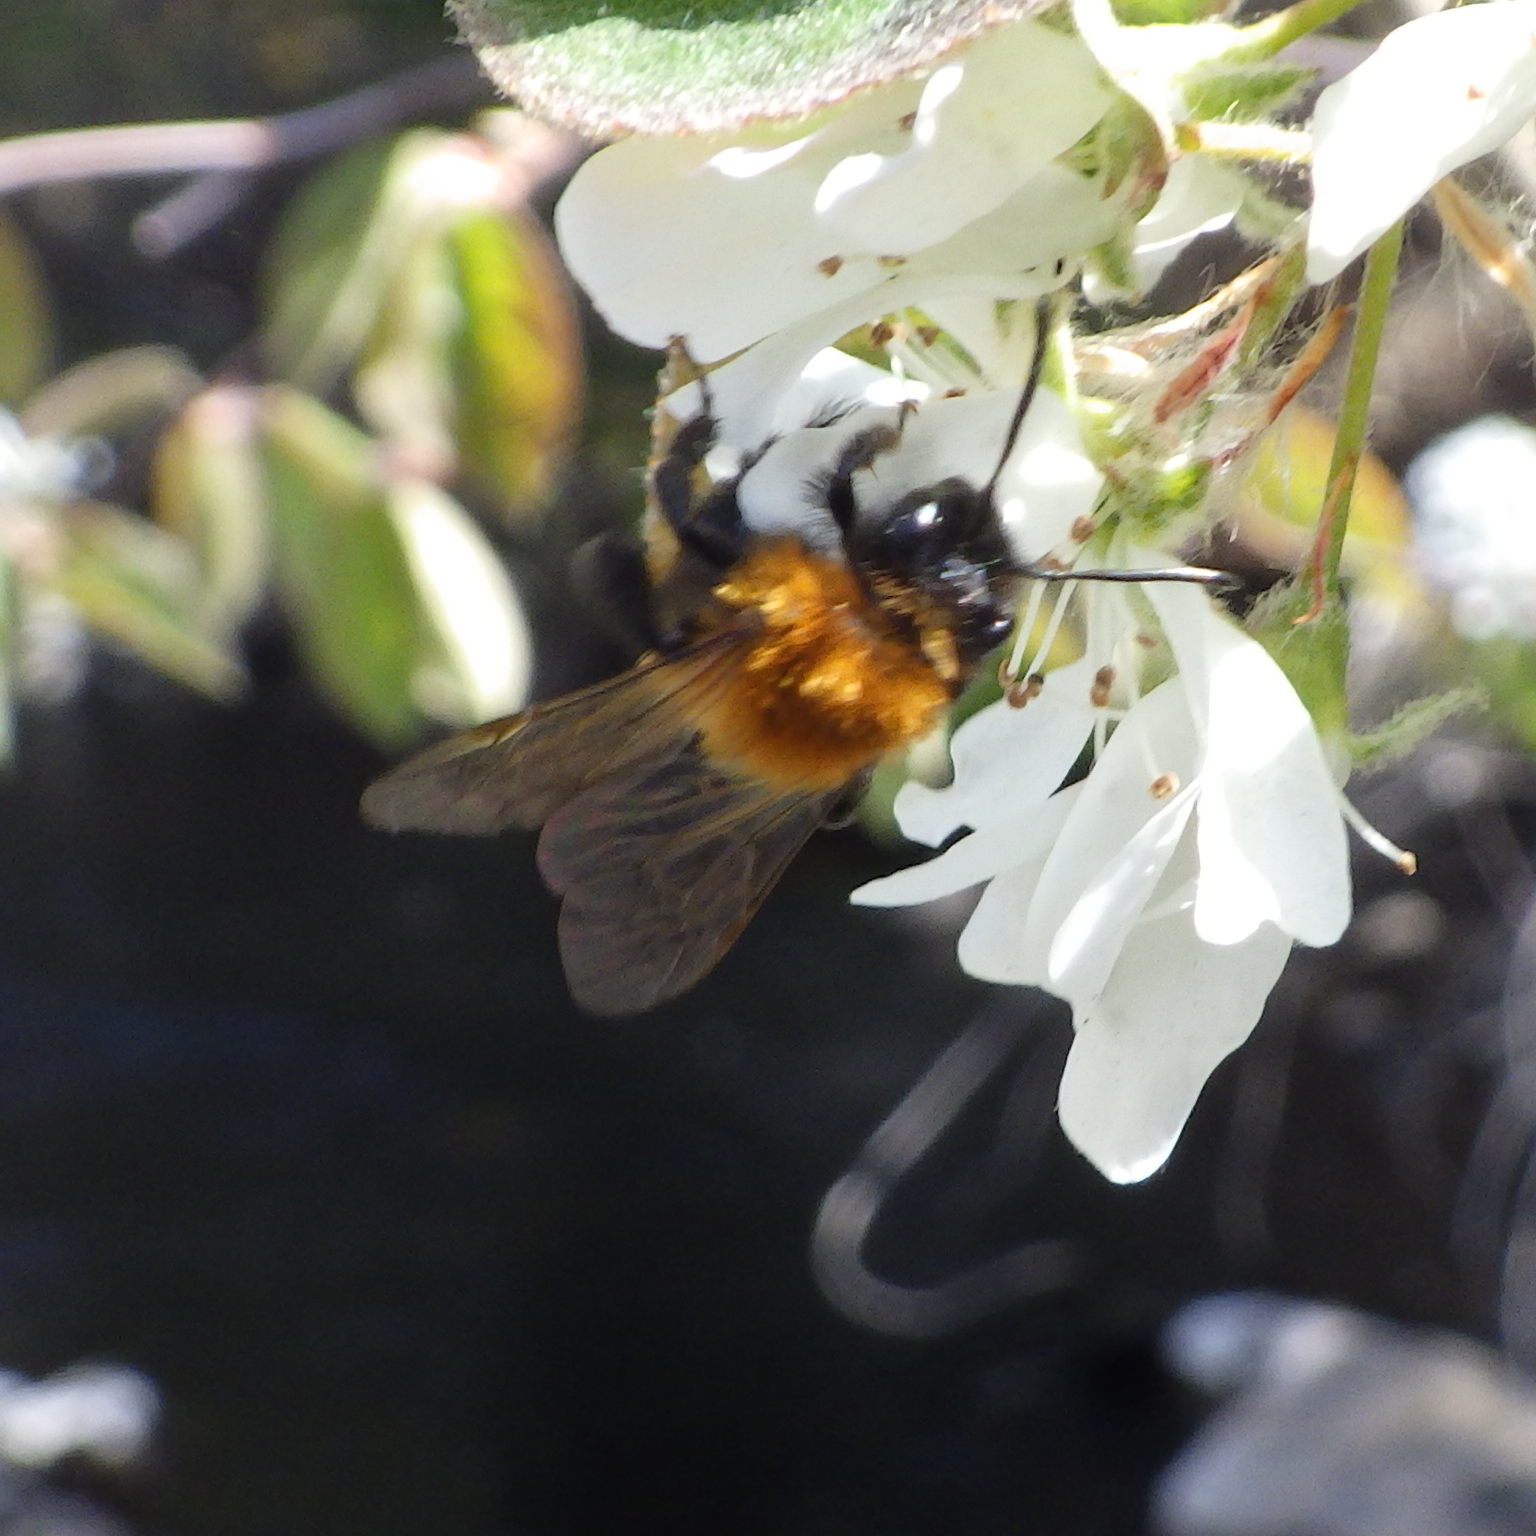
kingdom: Animalia
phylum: Arthropoda
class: Insecta
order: Hymenoptera
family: Andrenidae
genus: Andrena
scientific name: Andrena milwaukeensis
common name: Milwaukee mining bee
